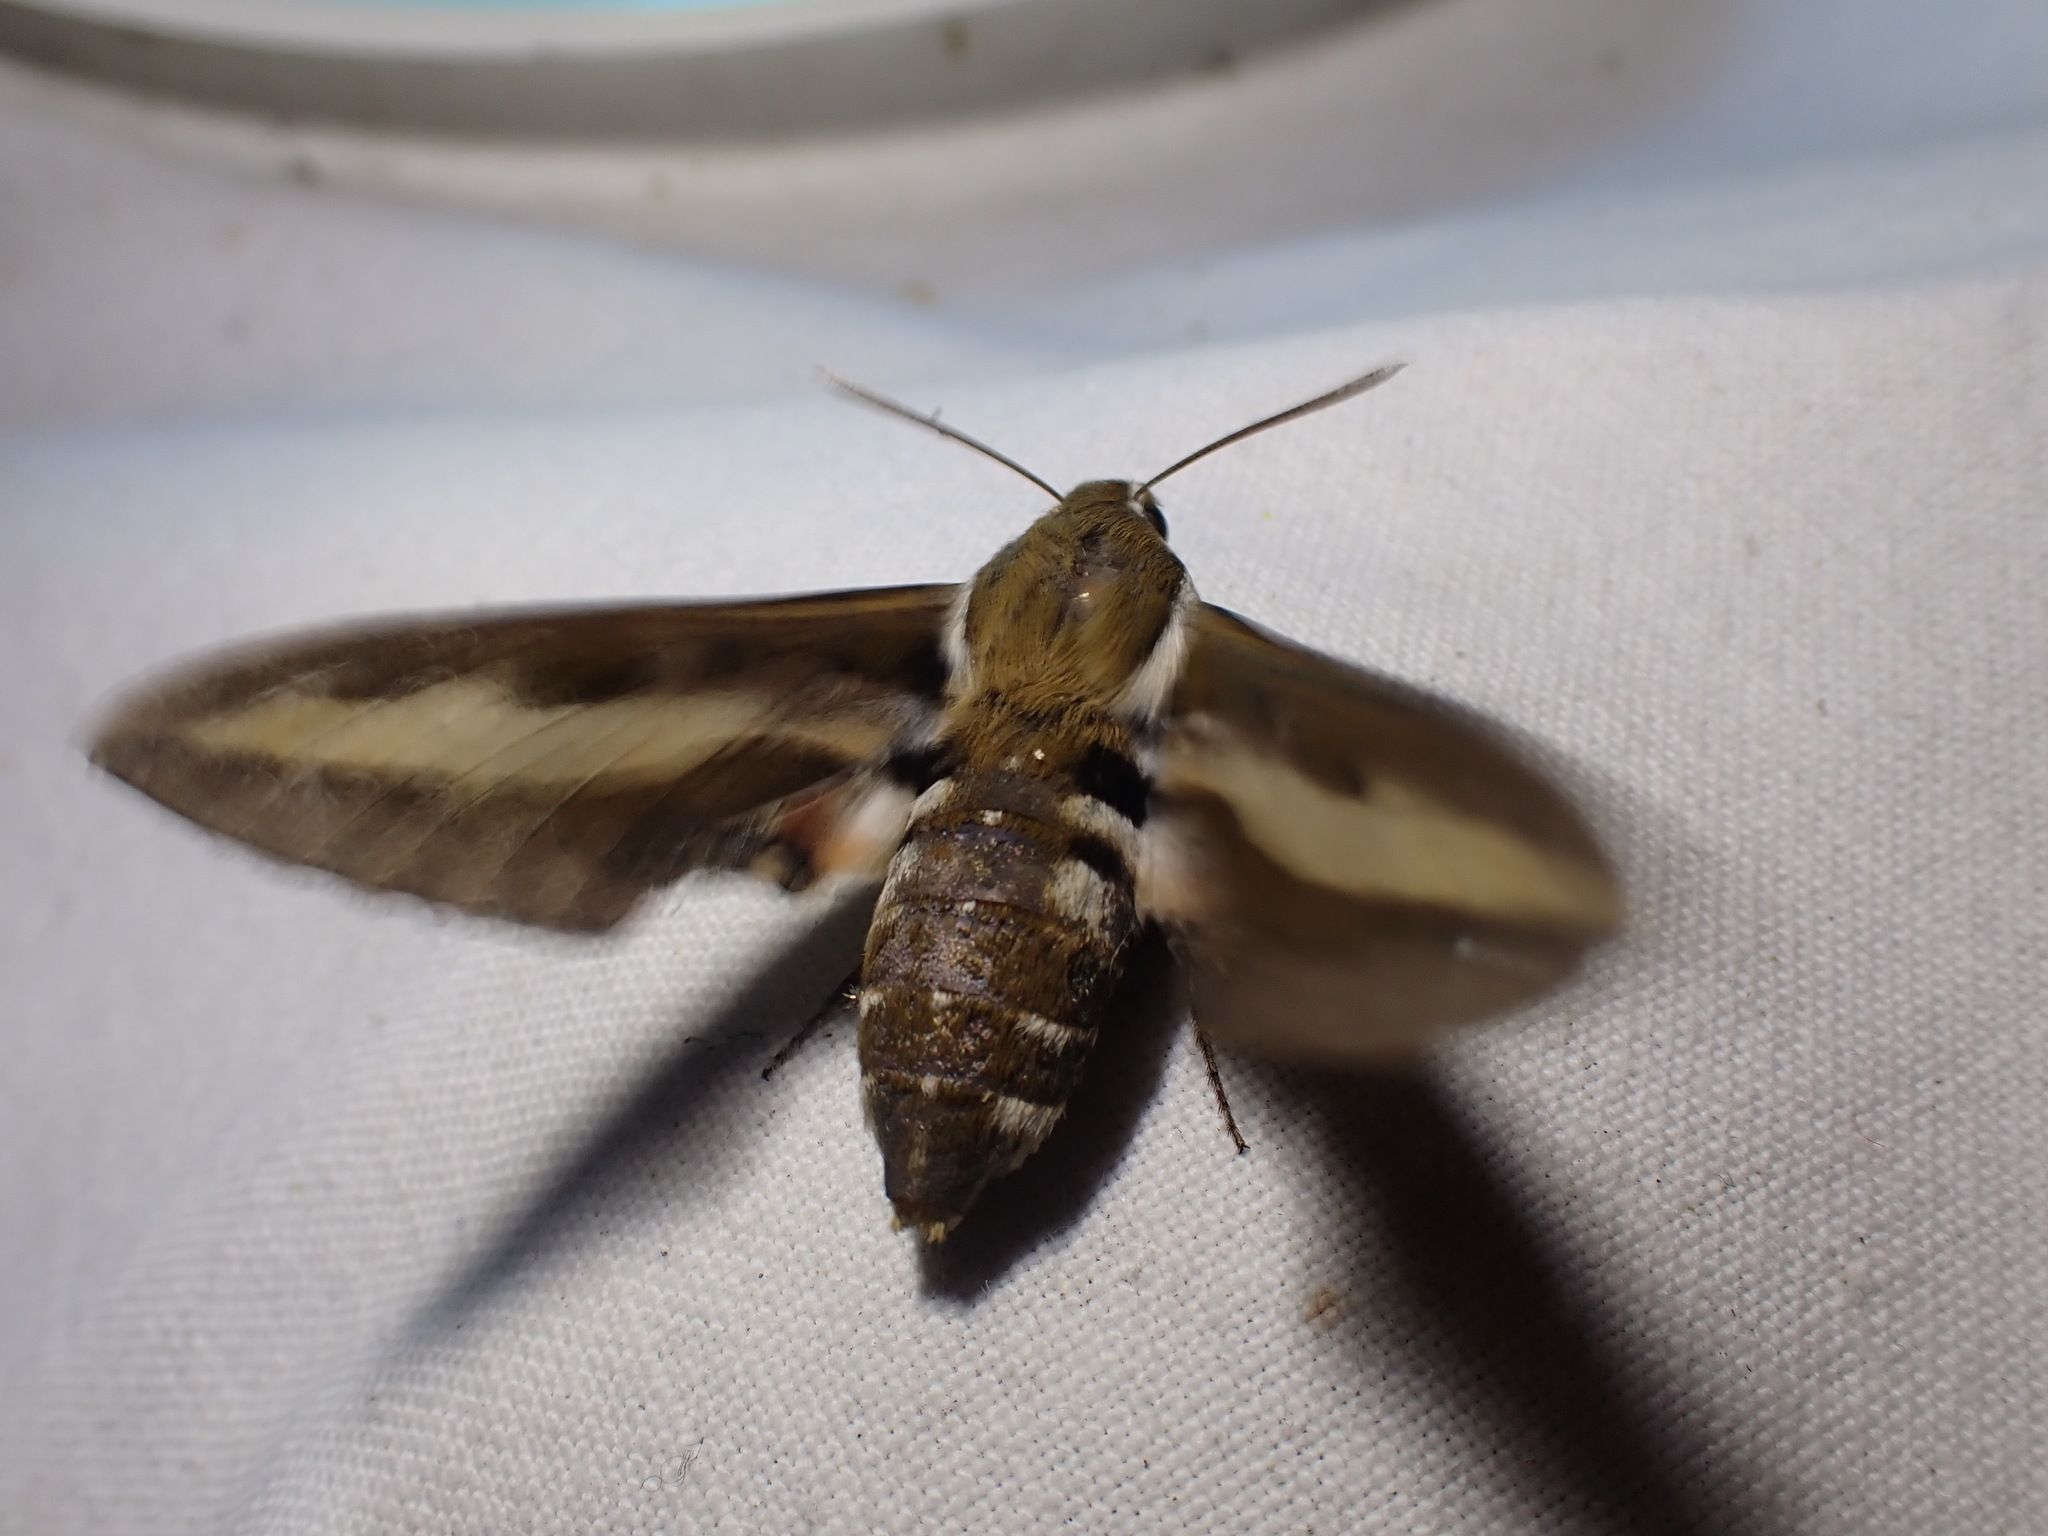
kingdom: Animalia
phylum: Arthropoda
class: Insecta
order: Lepidoptera
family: Sphingidae
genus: Hyles
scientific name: Hyles gallii
